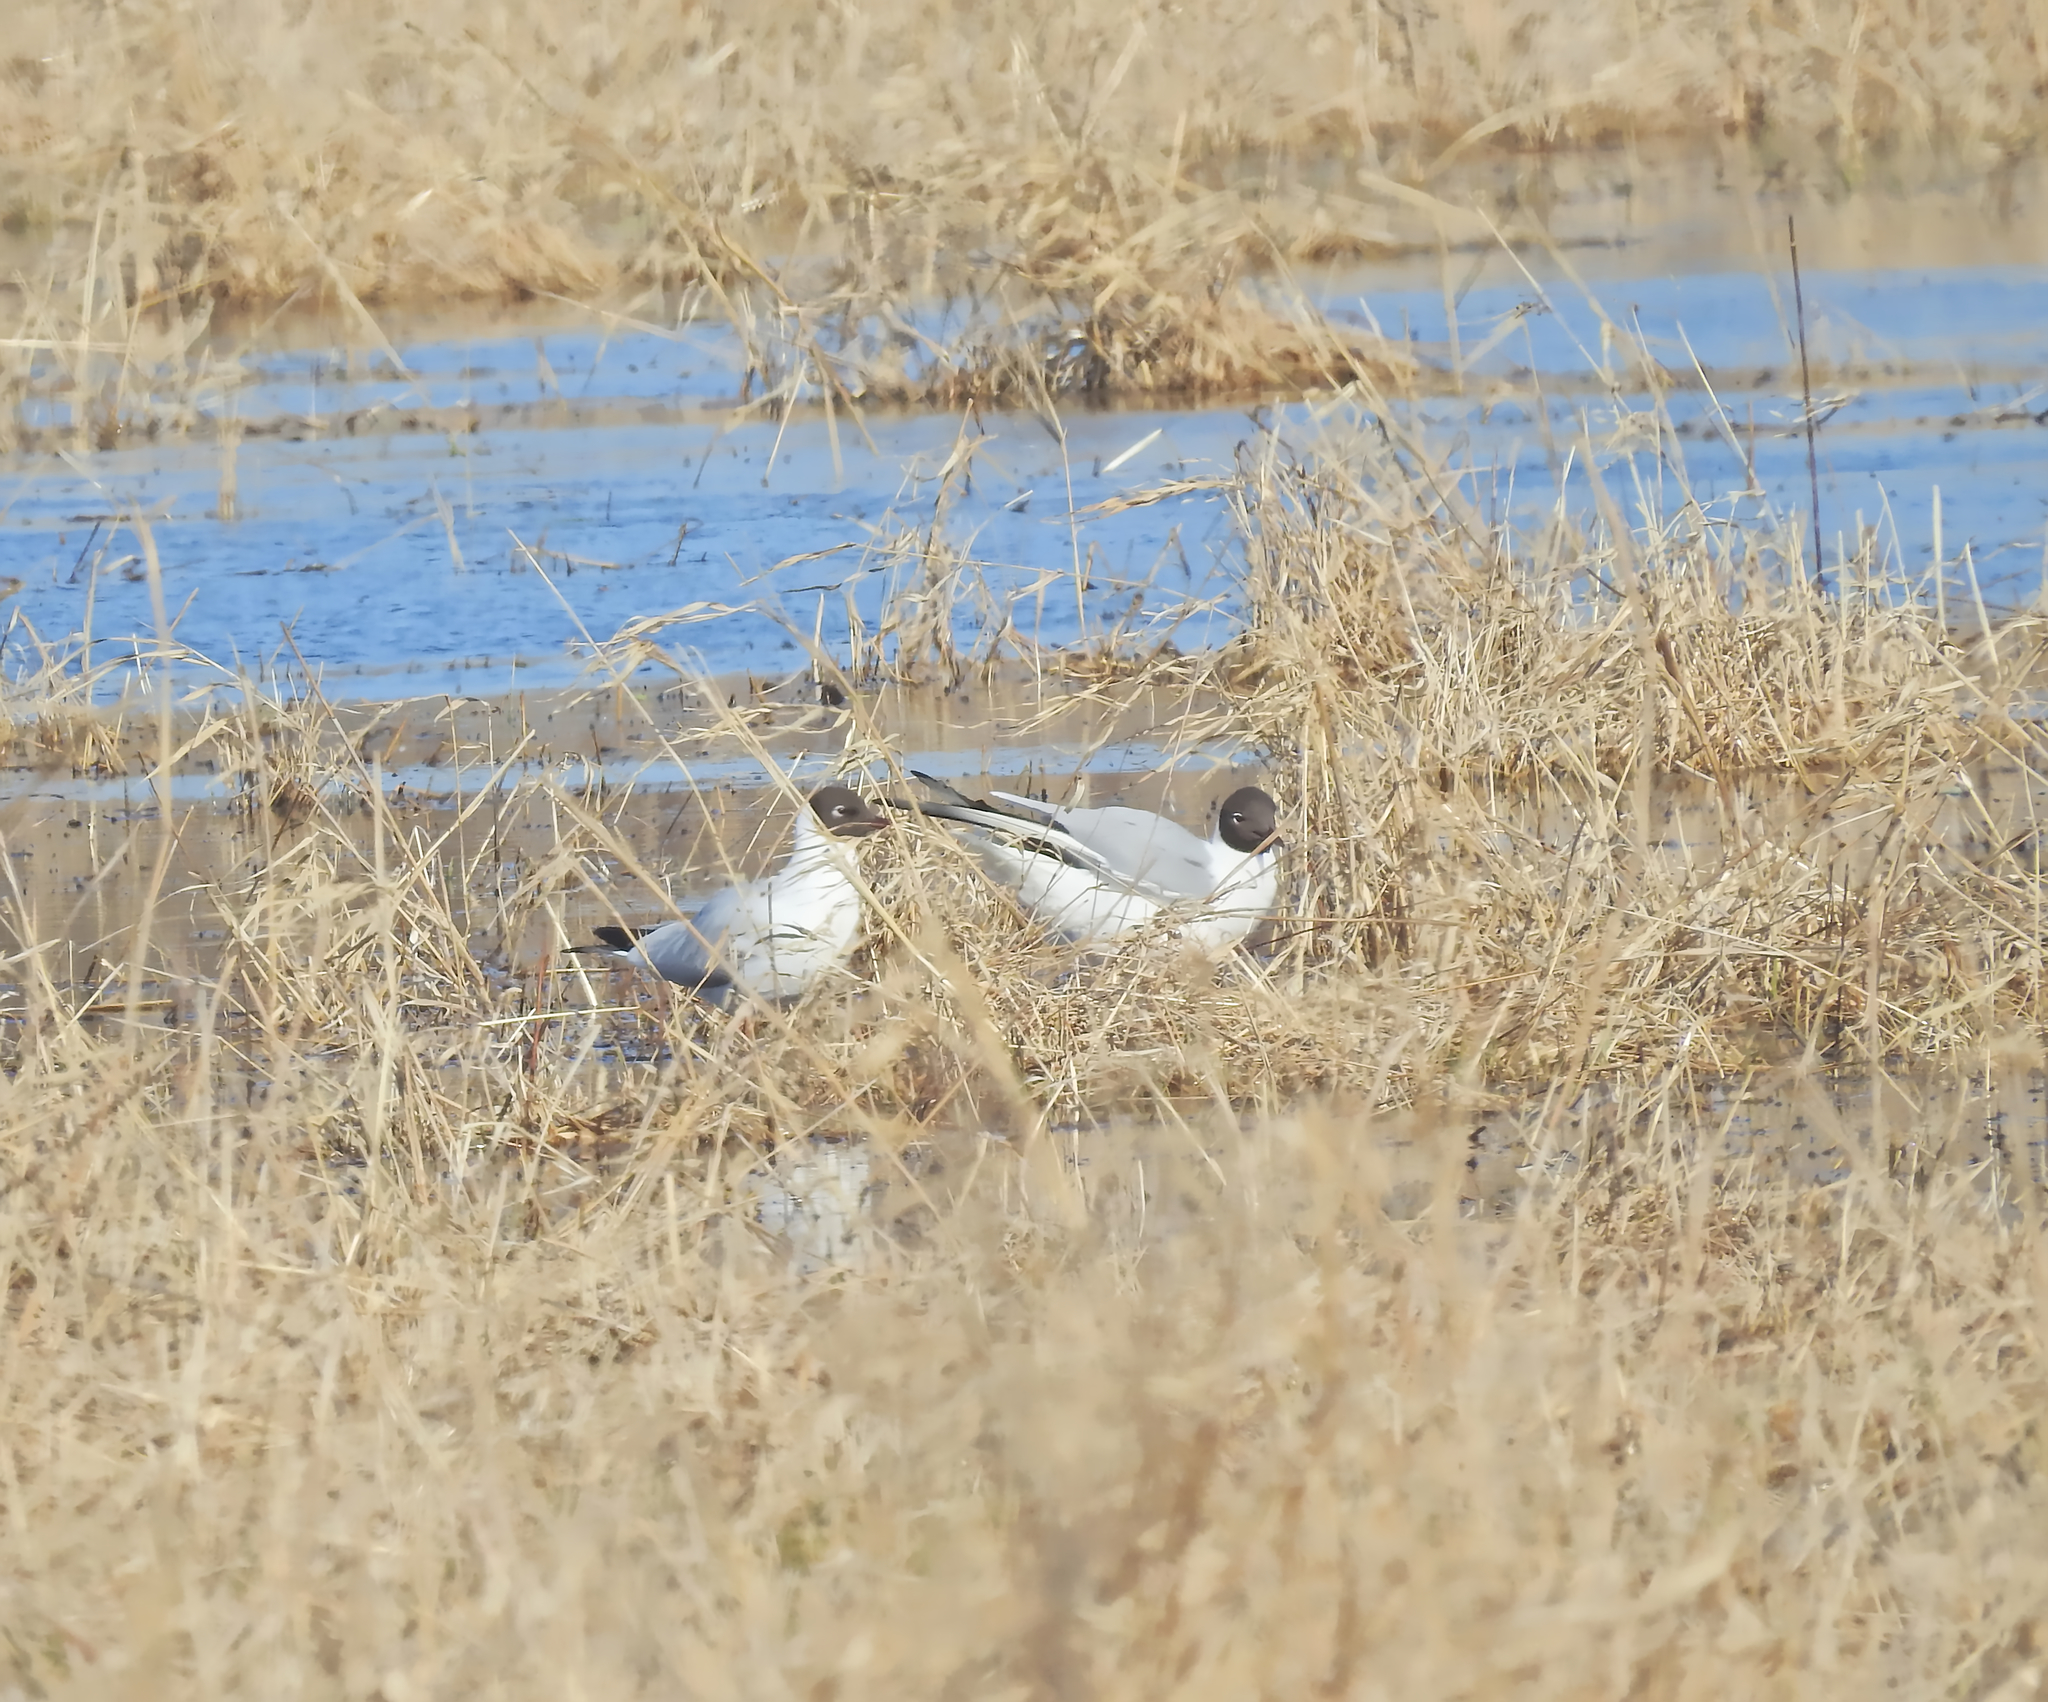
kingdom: Animalia
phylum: Chordata
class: Aves
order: Charadriiformes
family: Laridae
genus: Chroicocephalus
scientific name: Chroicocephalus ridibundus
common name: Black-headed gull
